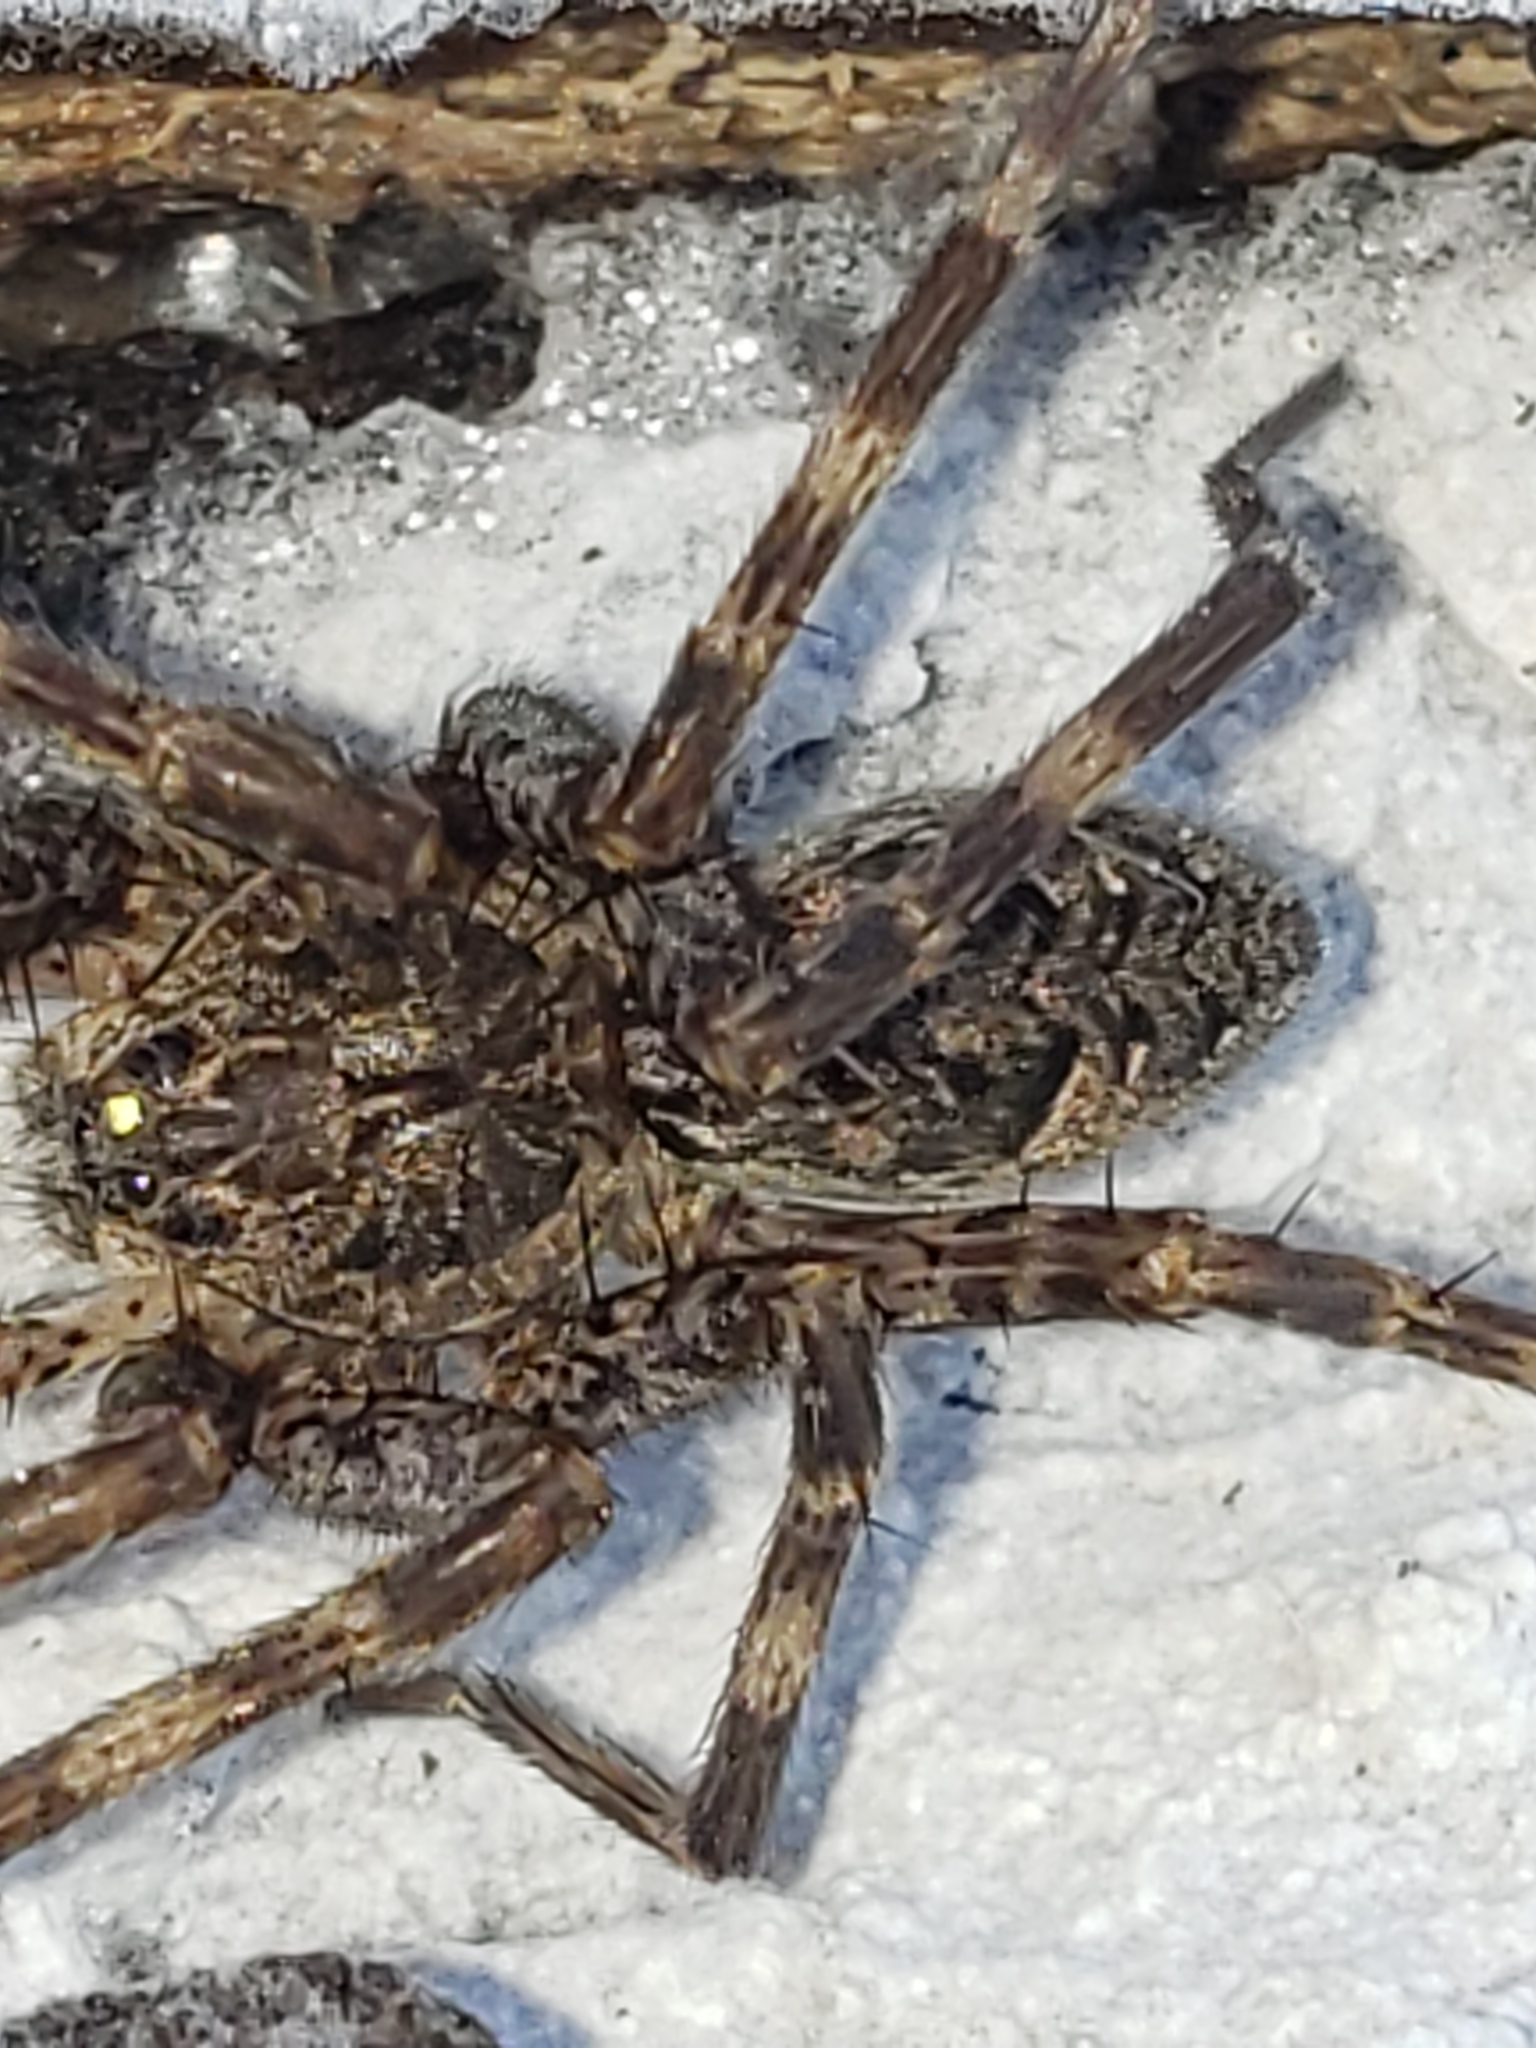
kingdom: Animalia
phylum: Arthropoda
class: Arachnida
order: Araneae
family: Pisauridae
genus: Dolomedes
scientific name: Dolomedes tenebrosus
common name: Dark fishing spider
